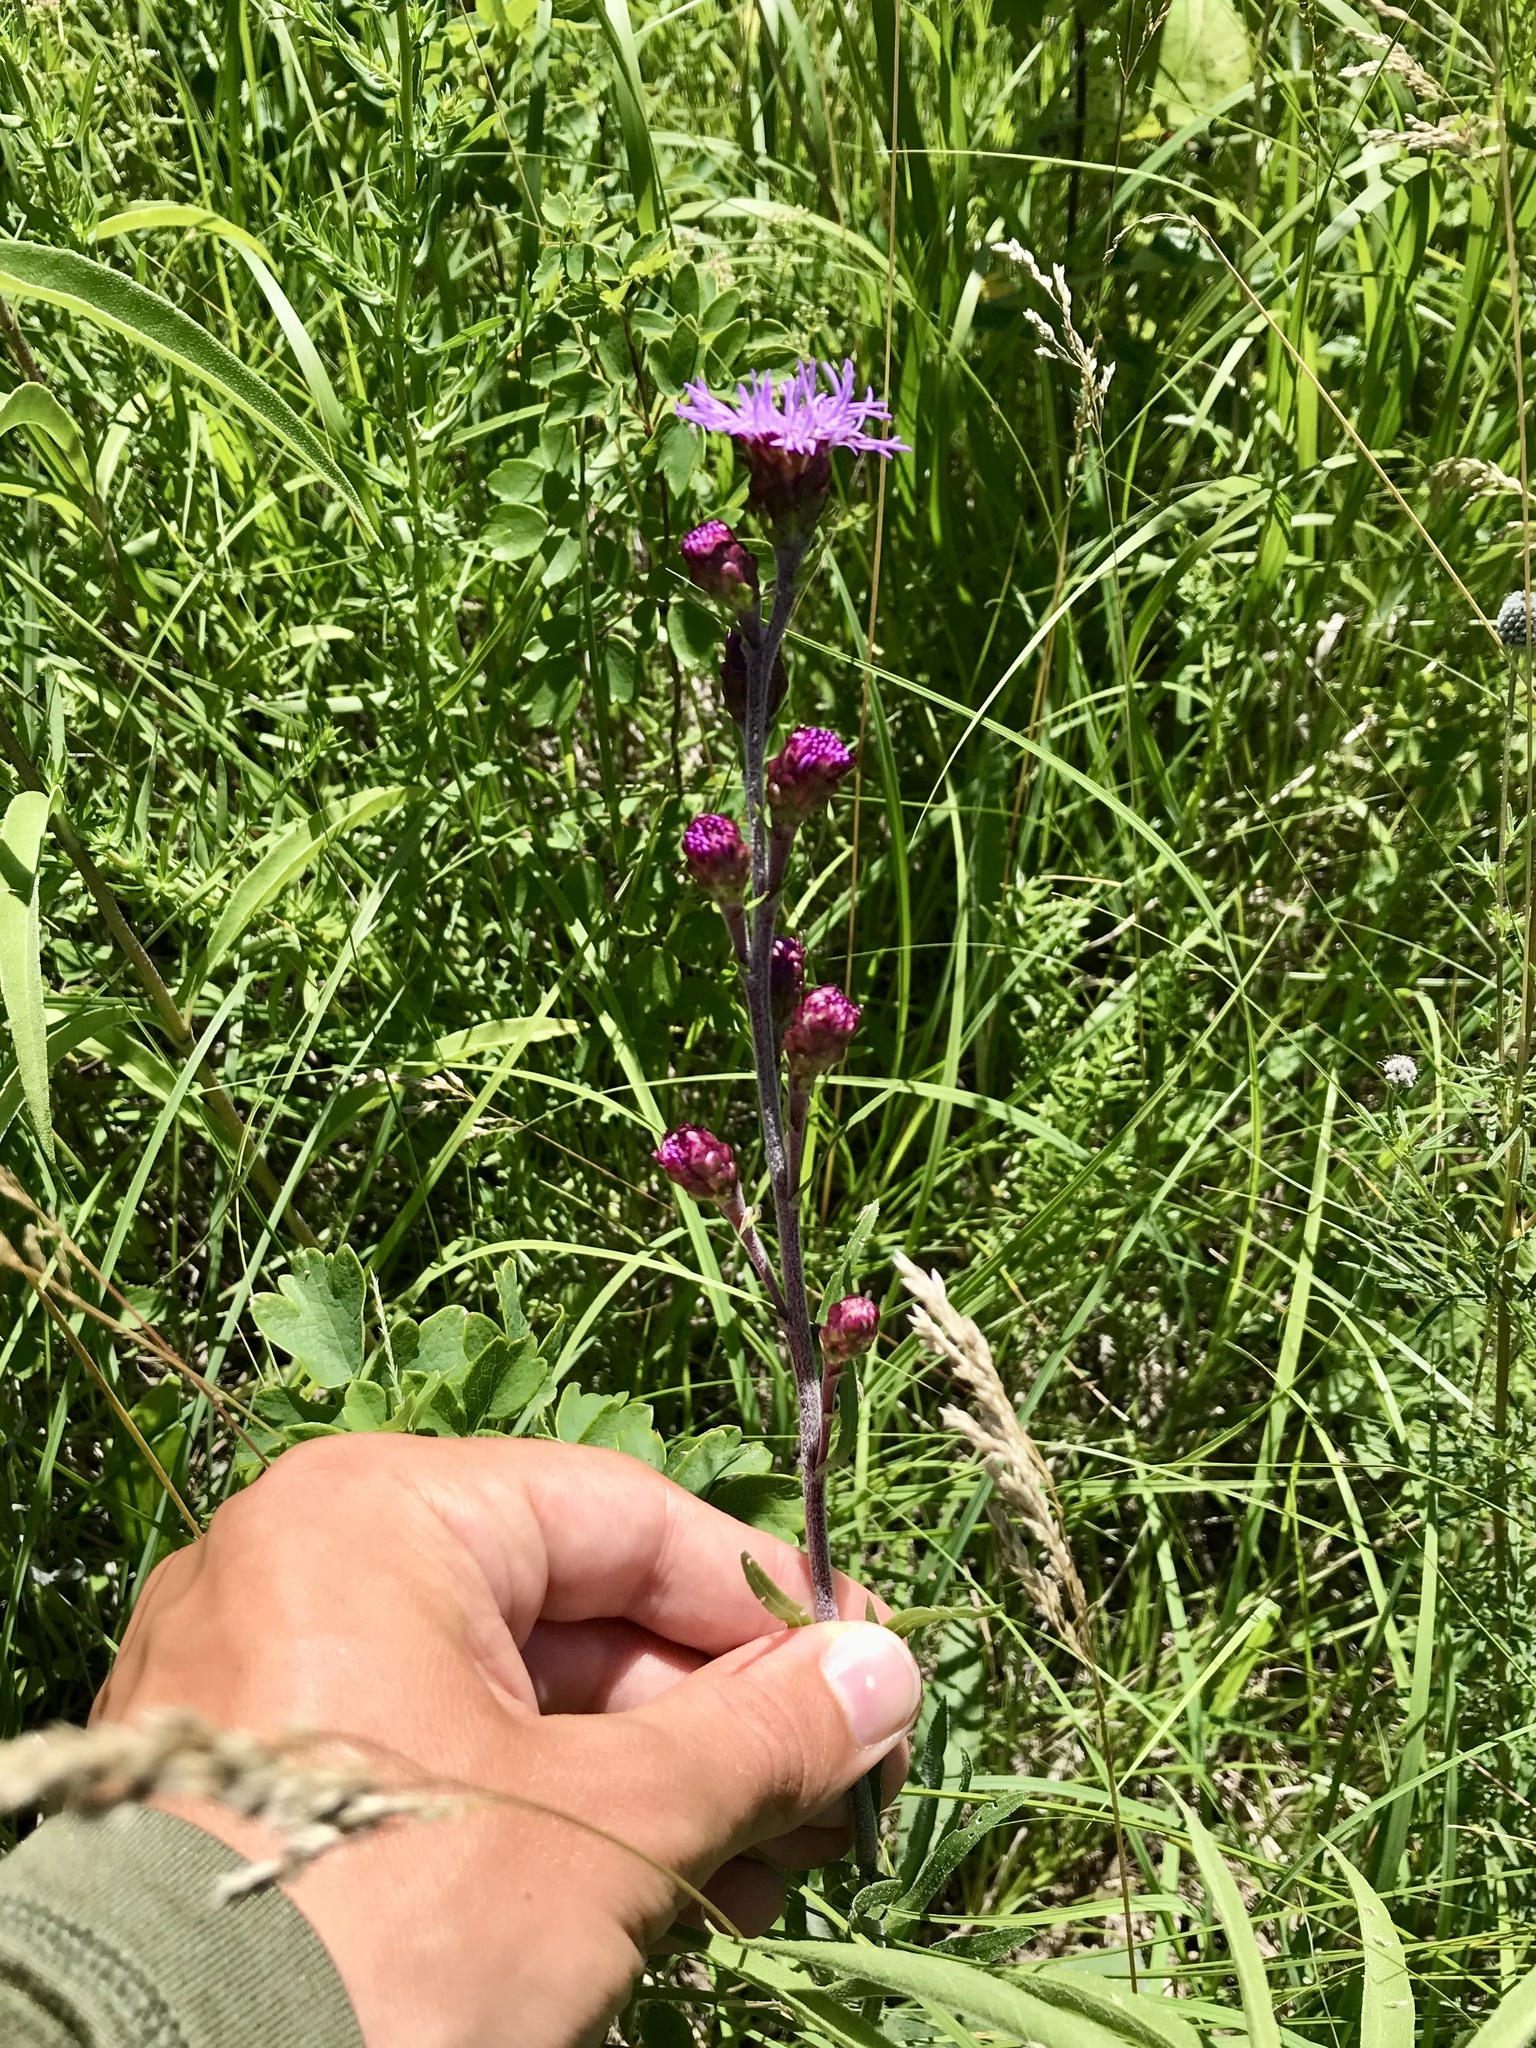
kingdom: Plantae
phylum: Tracheophyta
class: Magnoliopsida
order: Asterales
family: Asteraceae
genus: Liatris
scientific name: Liatris ligulistylis
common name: Northern plains gayfeather
